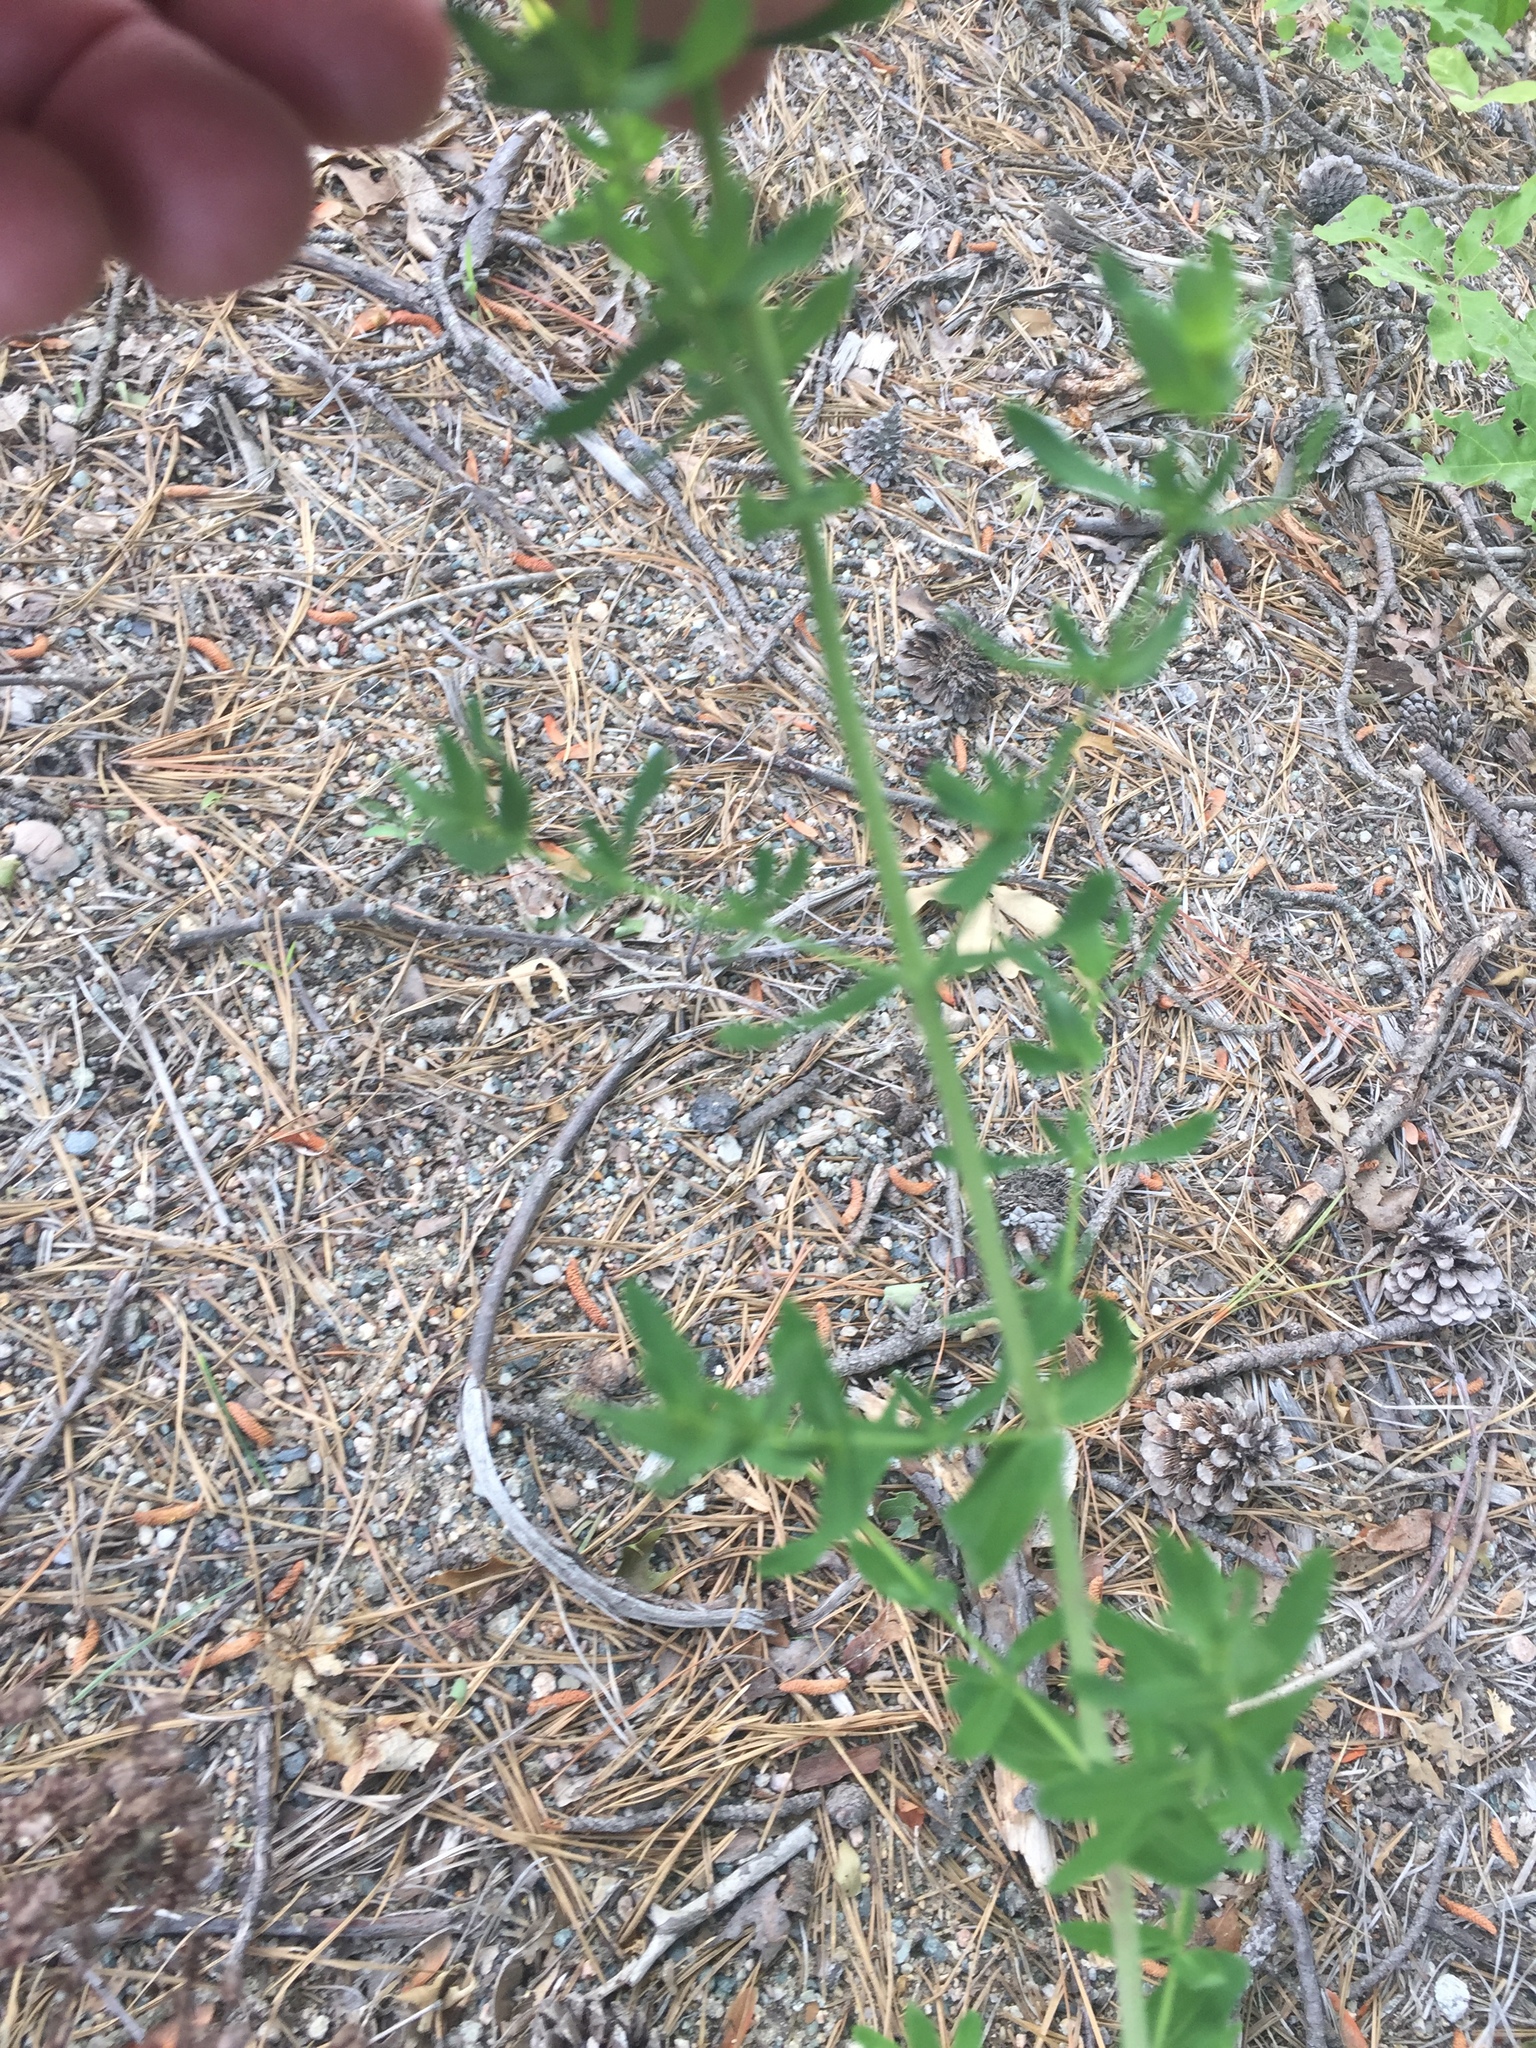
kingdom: Plantae
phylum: Tracheophyta
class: Magnoliopsida
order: Malpighiales
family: Hypericaceae
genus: Hypericum
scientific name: Hypericum perforatum
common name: Common st. johnswort
